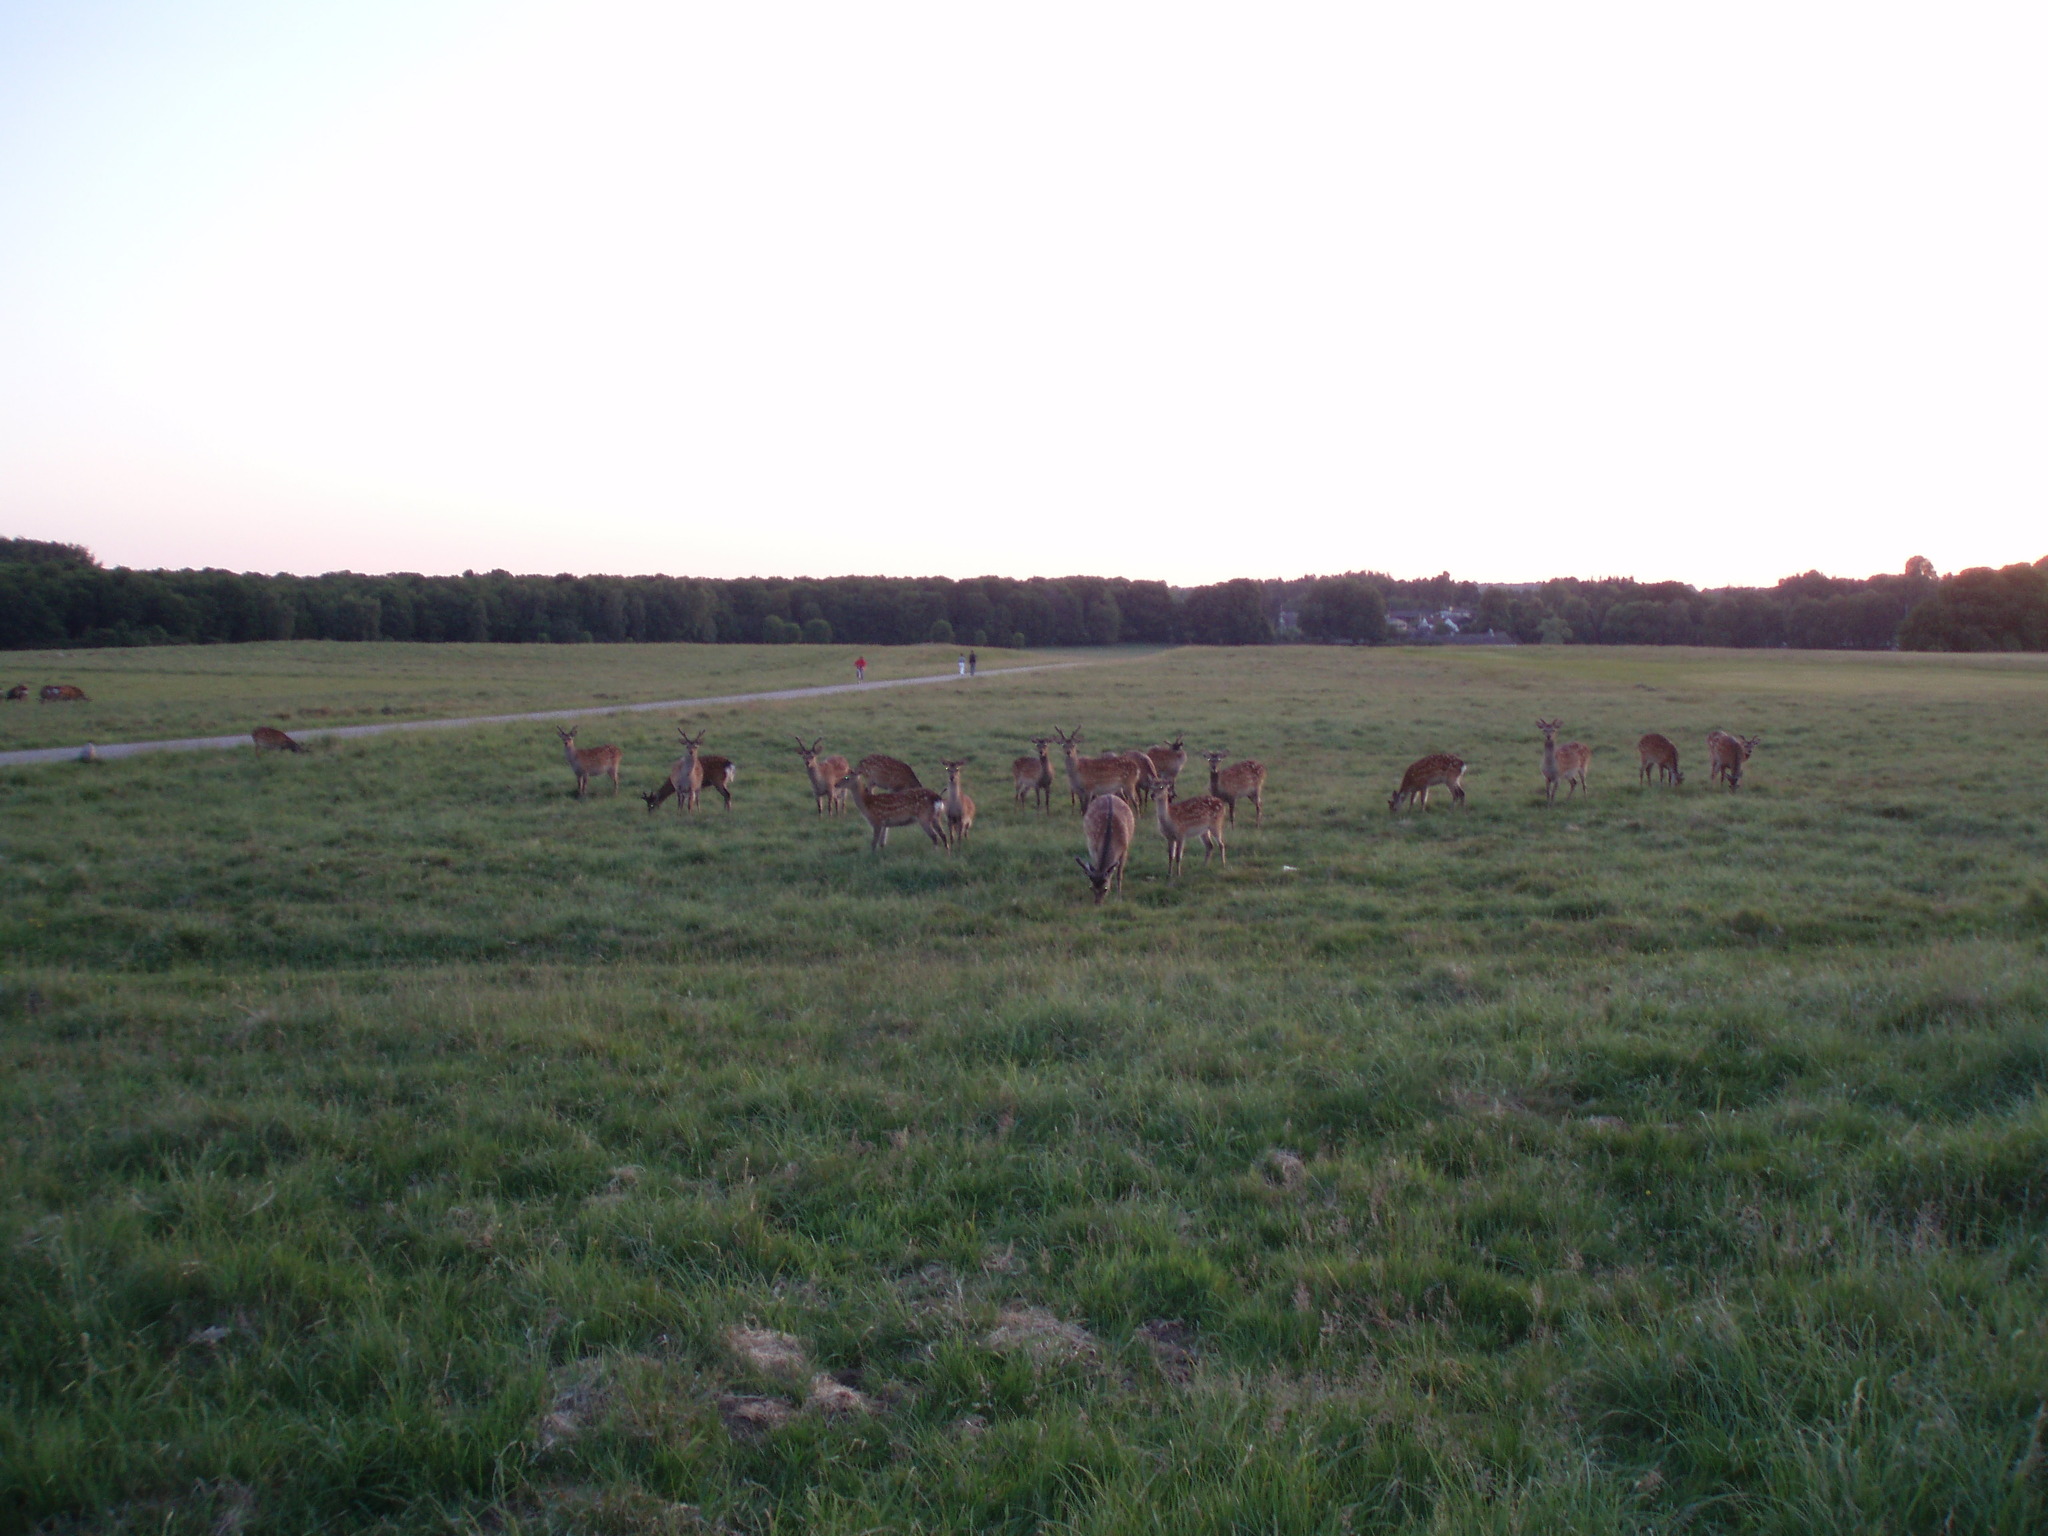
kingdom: Animalia
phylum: Chordata
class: Mammalia
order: Artiodactyla
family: Cervidae
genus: Cervus
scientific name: Cervus nippon
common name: Sika deer
